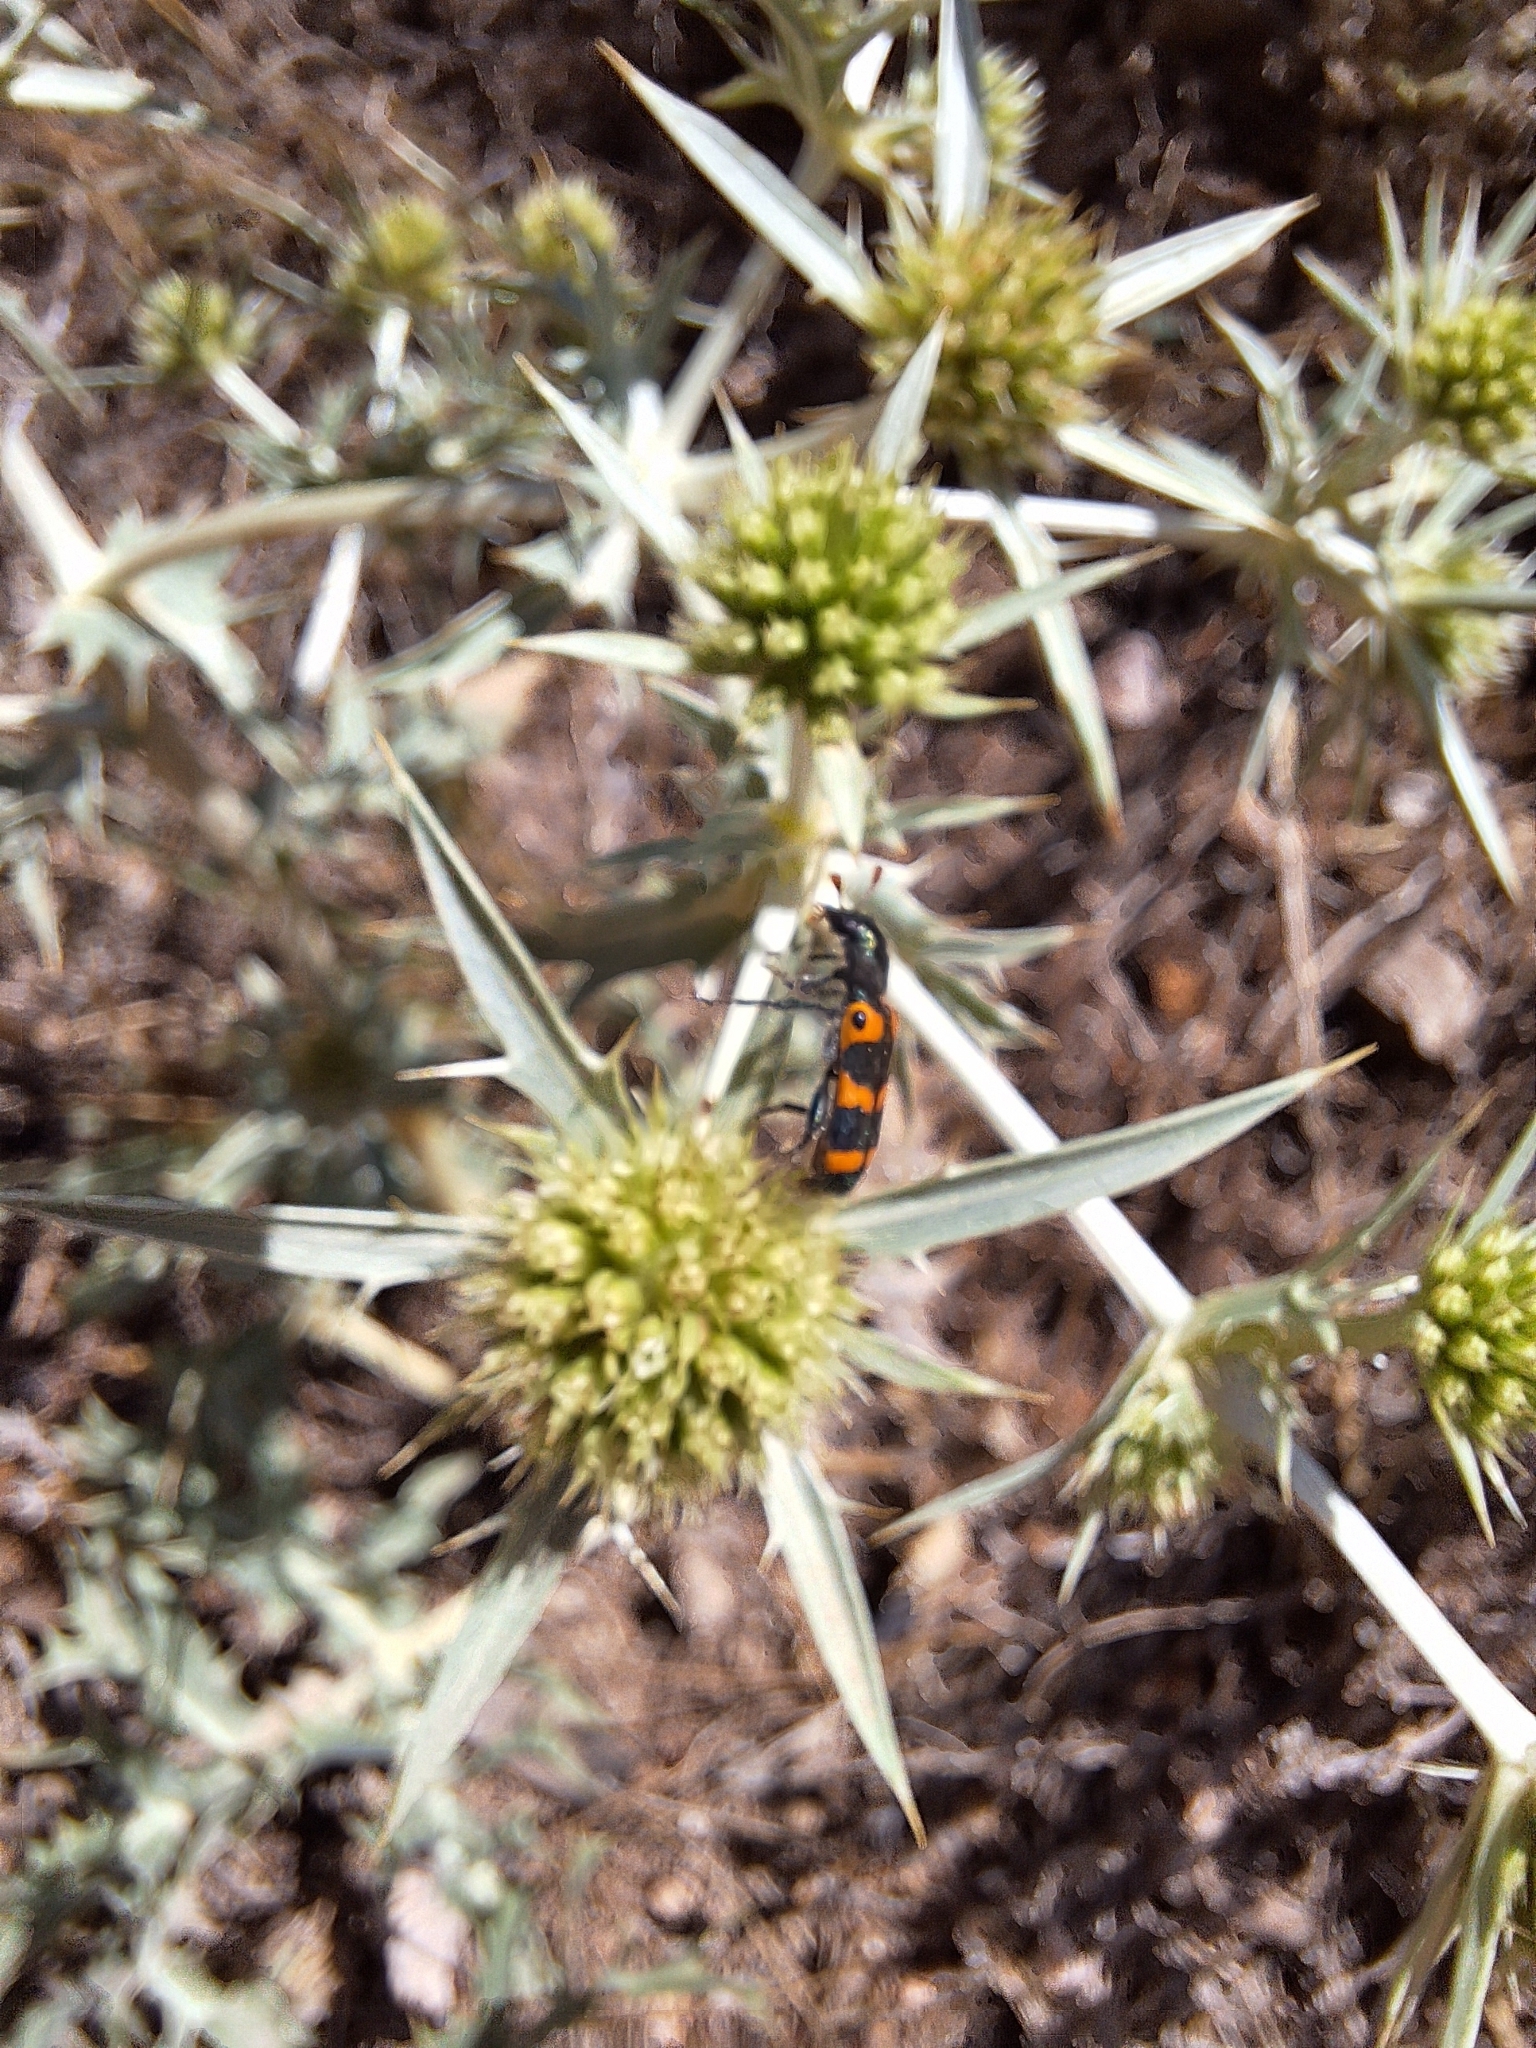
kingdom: Animalia
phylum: Arthropoda
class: Insecta
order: Coleoptera
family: Cleridae
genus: Trichodes
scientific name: Trichodes leucopsideus
